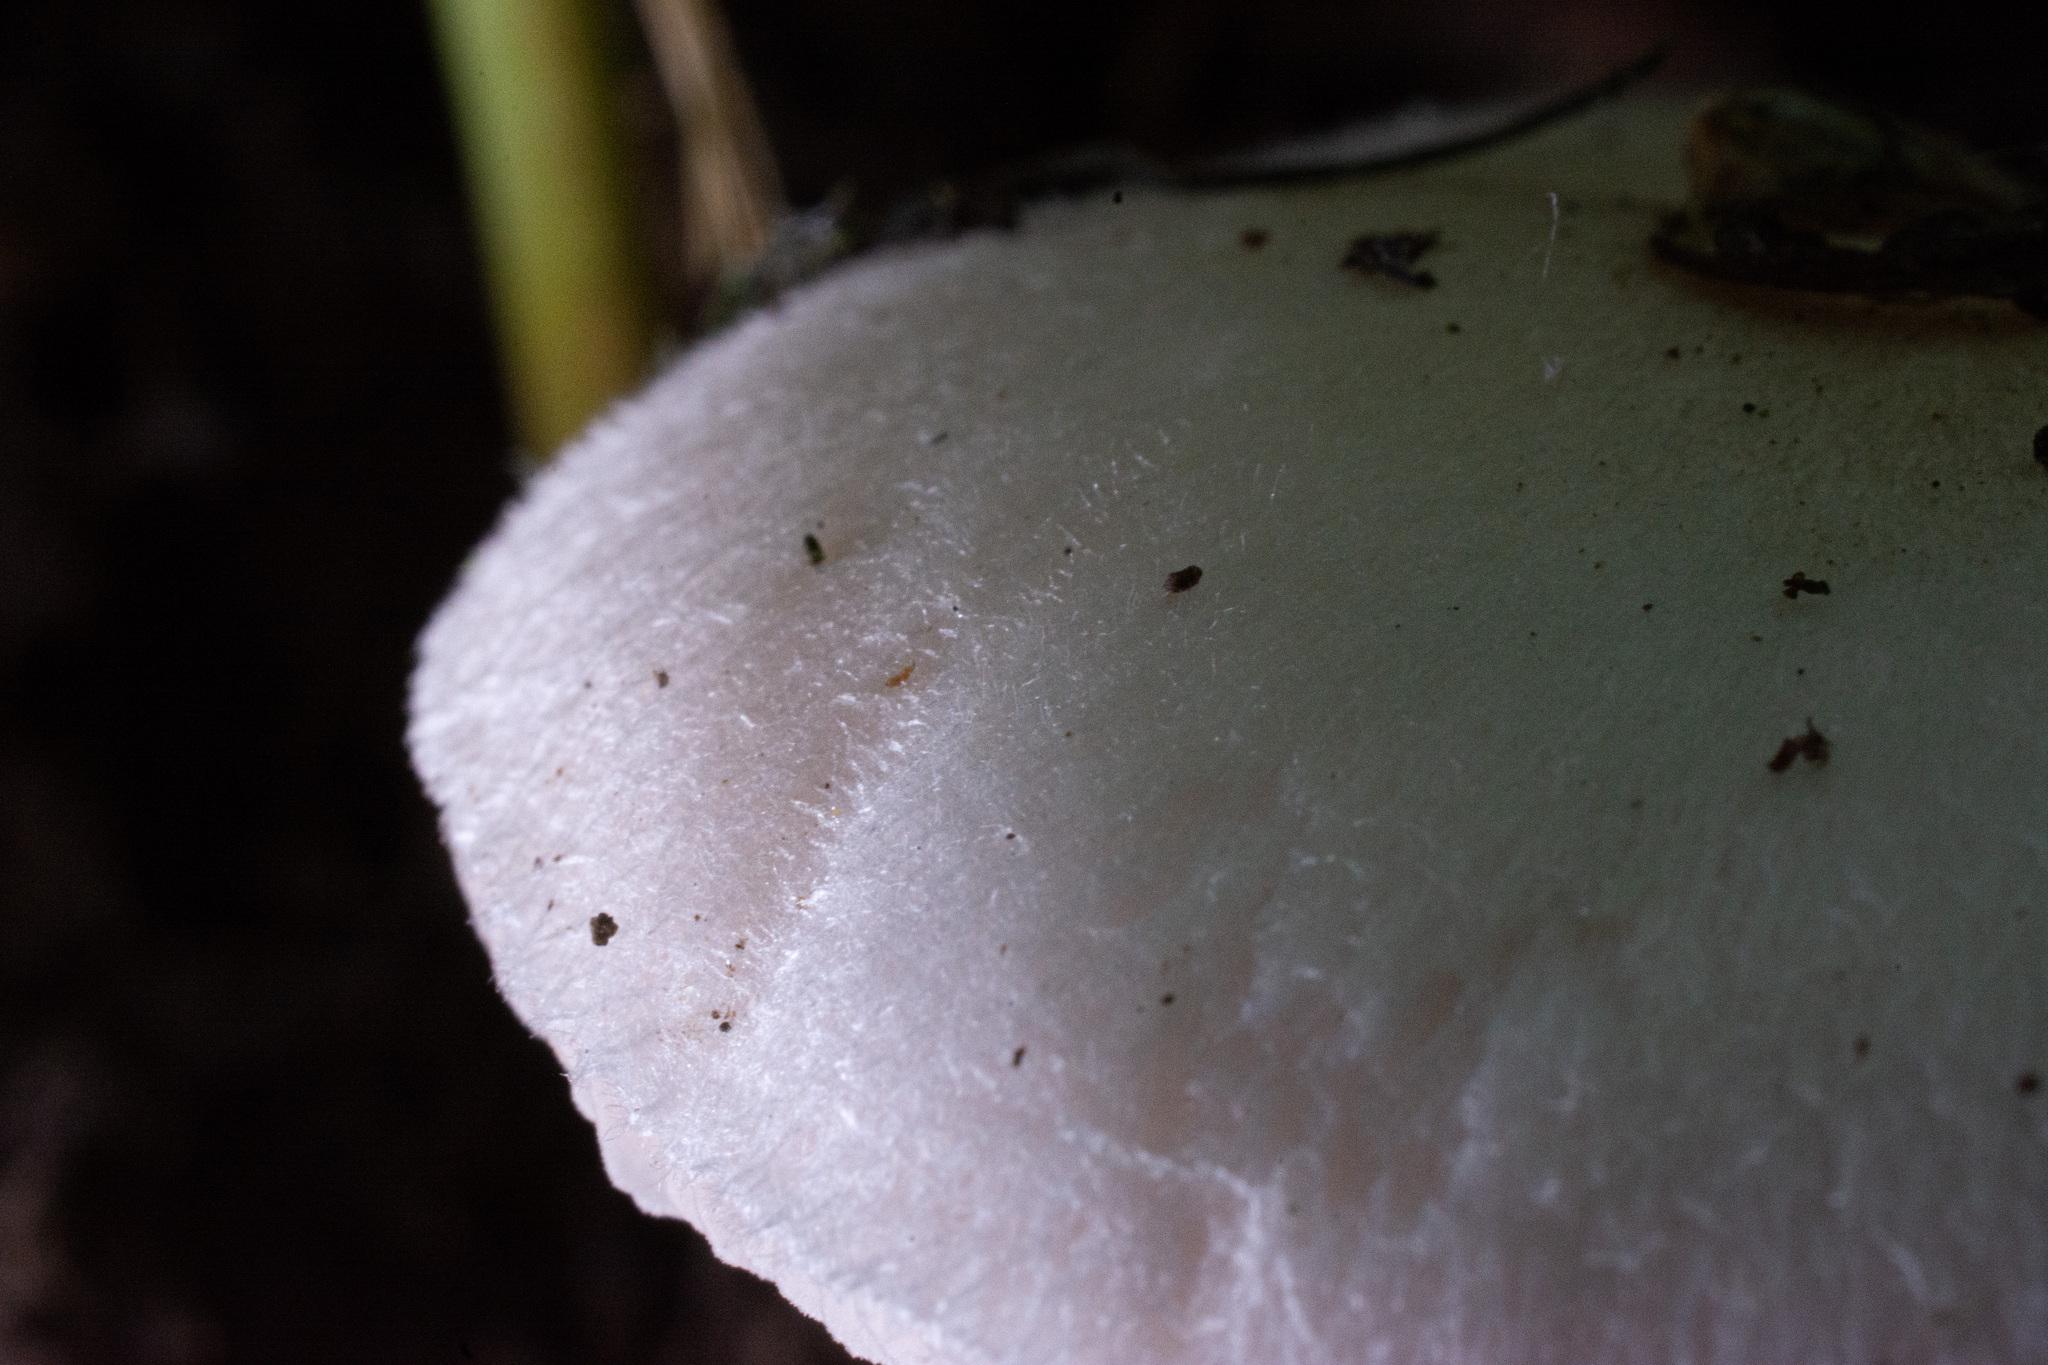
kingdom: Fungi
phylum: Basidiomycota
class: Agaricomycetes
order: Agaricales
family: Pluteaceae
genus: Volvariella
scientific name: Volvariella murinella
